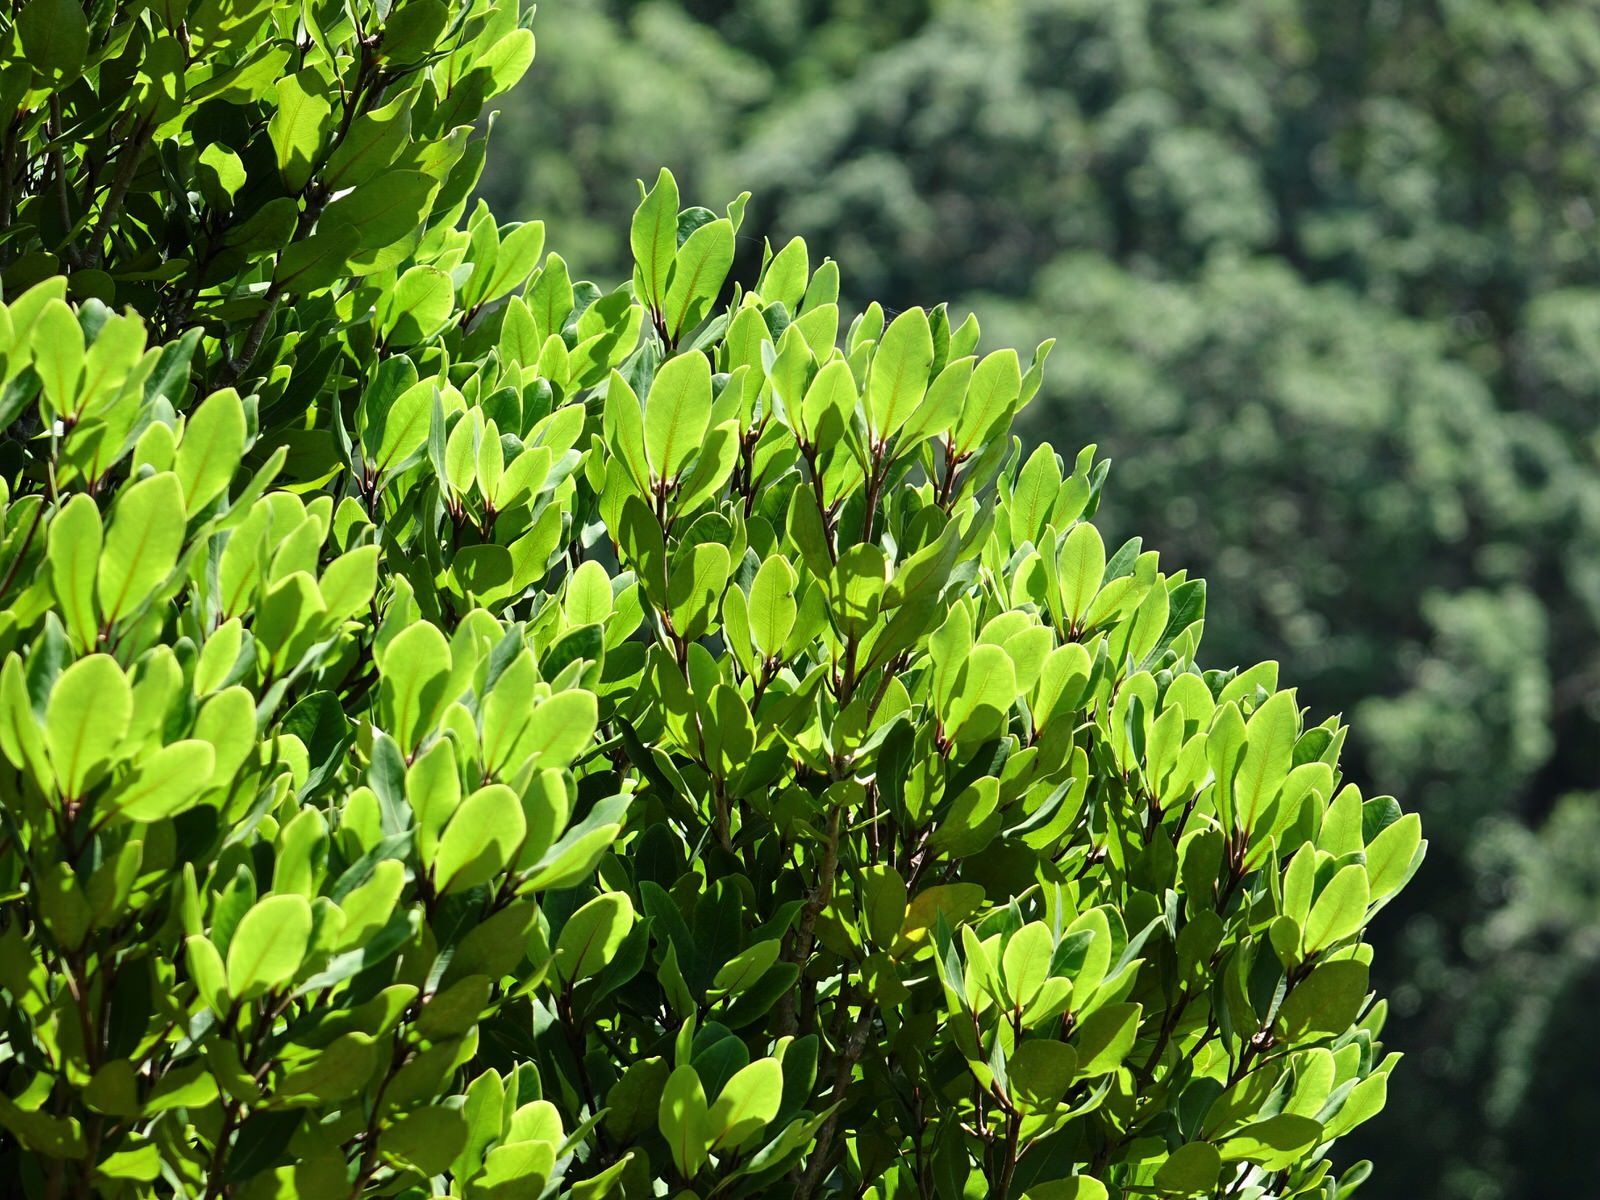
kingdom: Plantae
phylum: Tracheophyta
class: Magnoliopsida
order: Apiales
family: Pittosporaceae
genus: Pittosporum
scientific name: Pittosporum umbellatum
